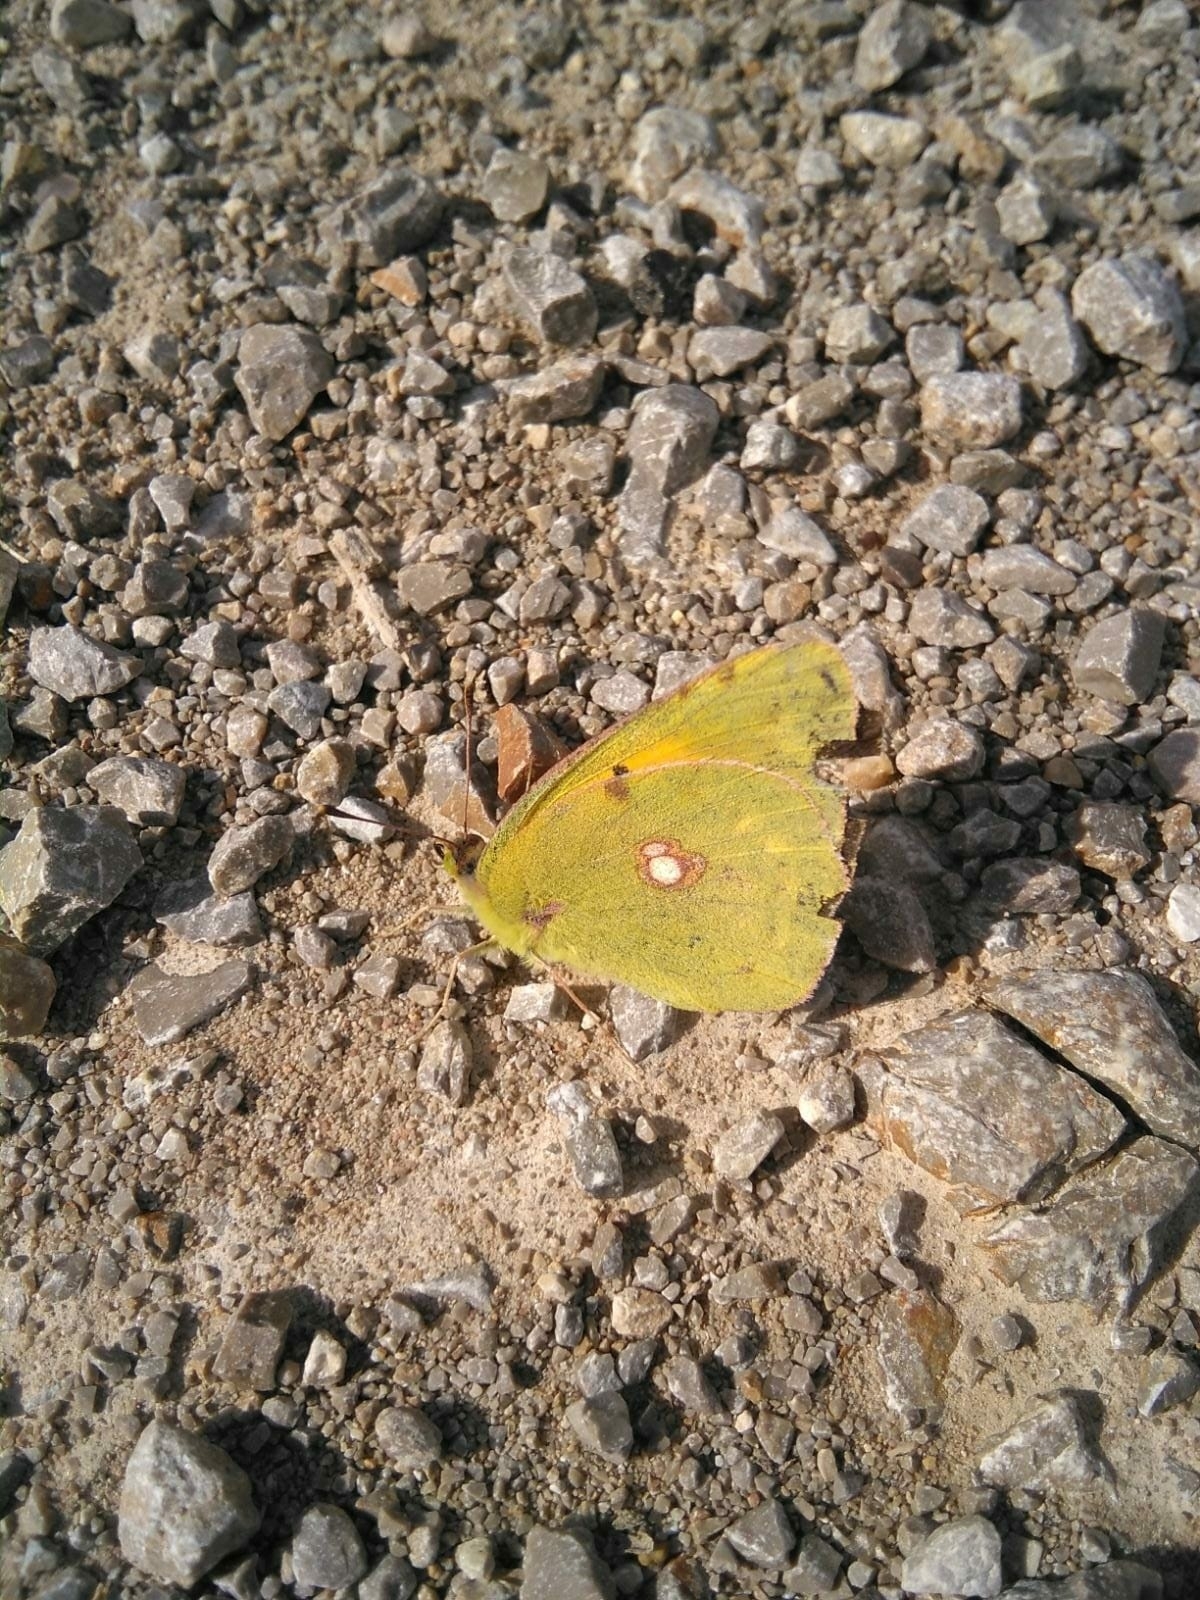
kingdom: Animalia
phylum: Arthropoda
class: Insecta
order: Lepidoptera
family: Pieridae
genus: Colias
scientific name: Colias croceus
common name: Clouded yellow
